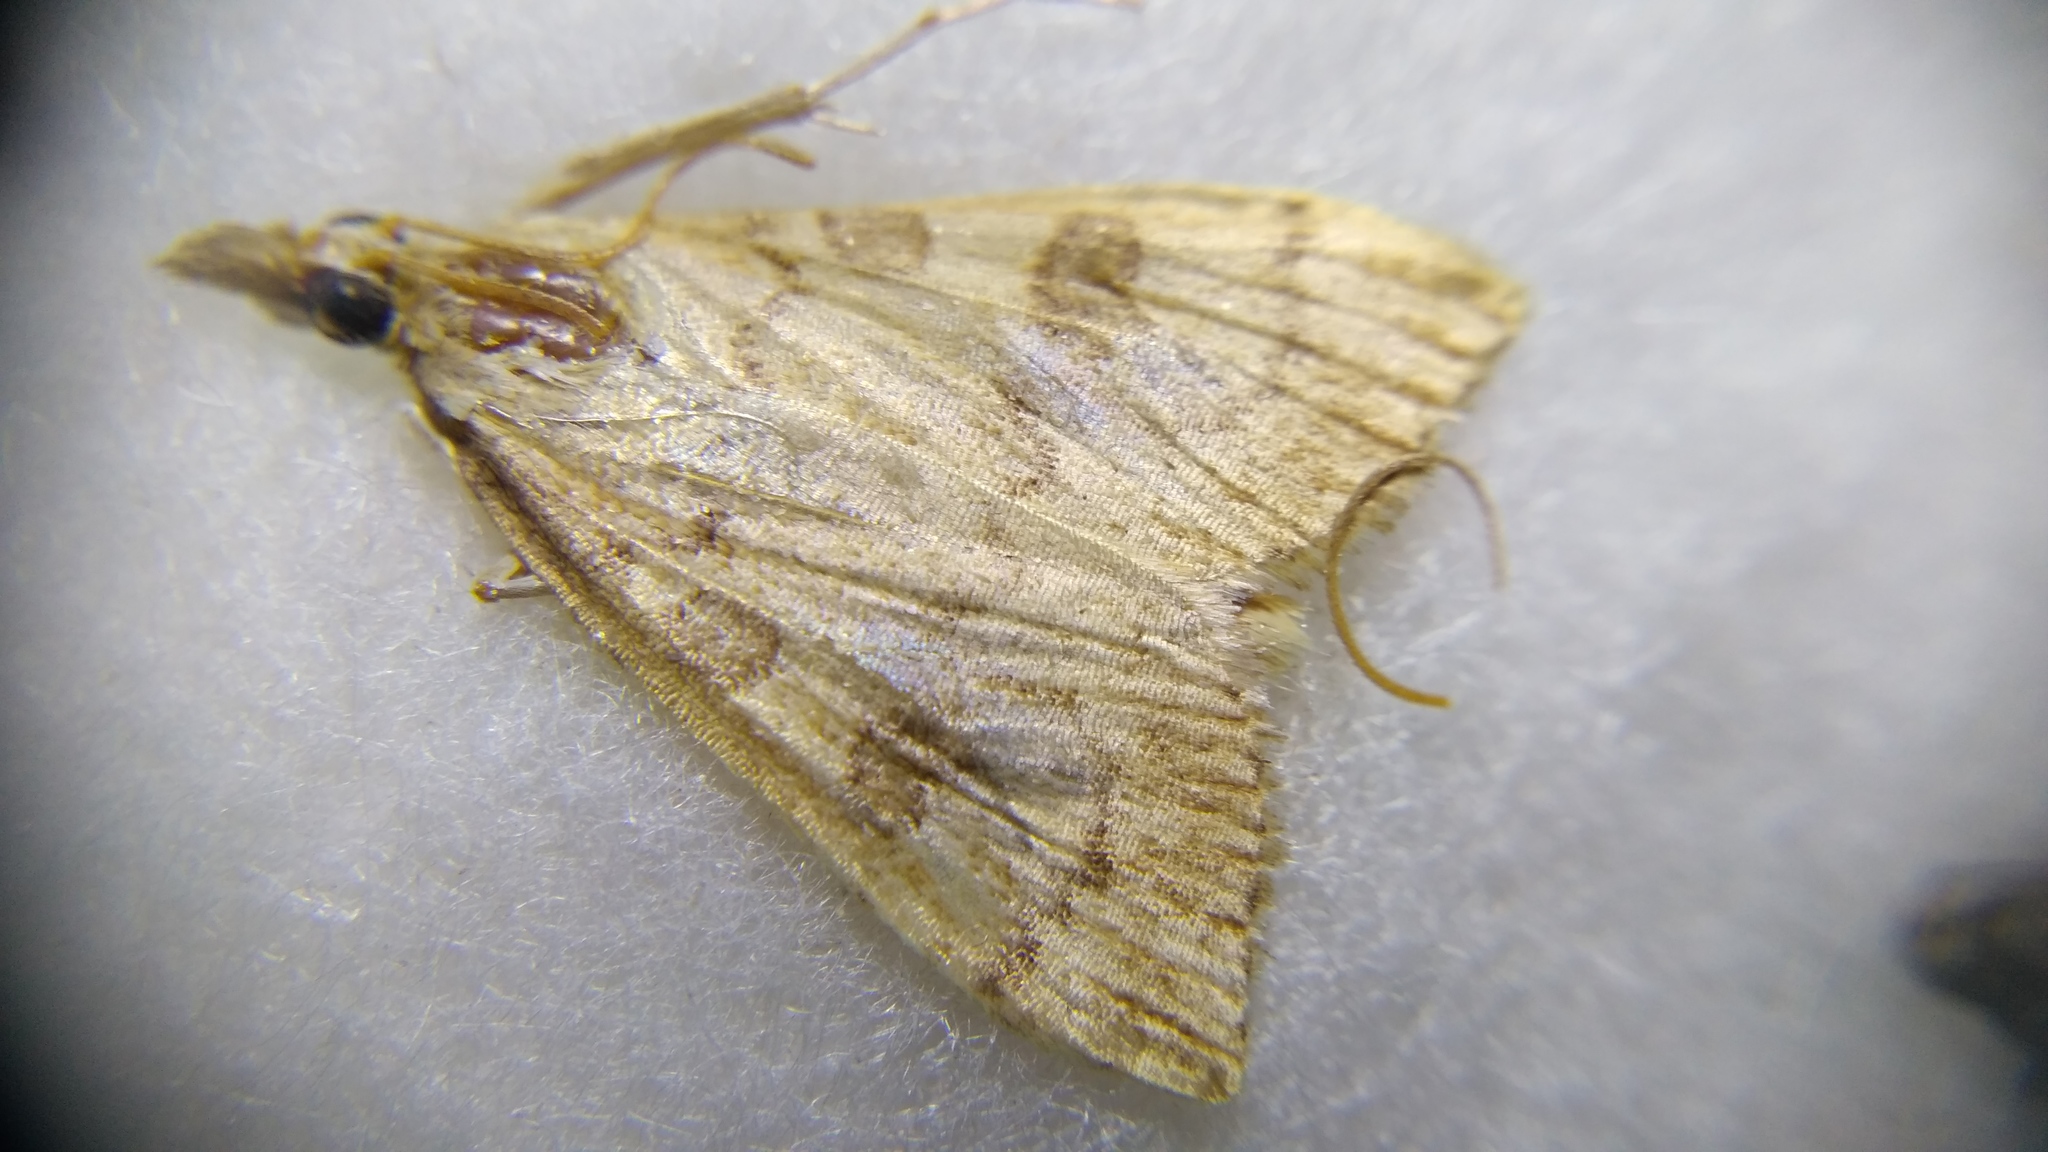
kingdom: Animalia
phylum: Arthropoda
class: Insecta
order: Lepidoptera
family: Crambidae
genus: Udea
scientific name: Udea fulvalis
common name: Fulvous pearl
